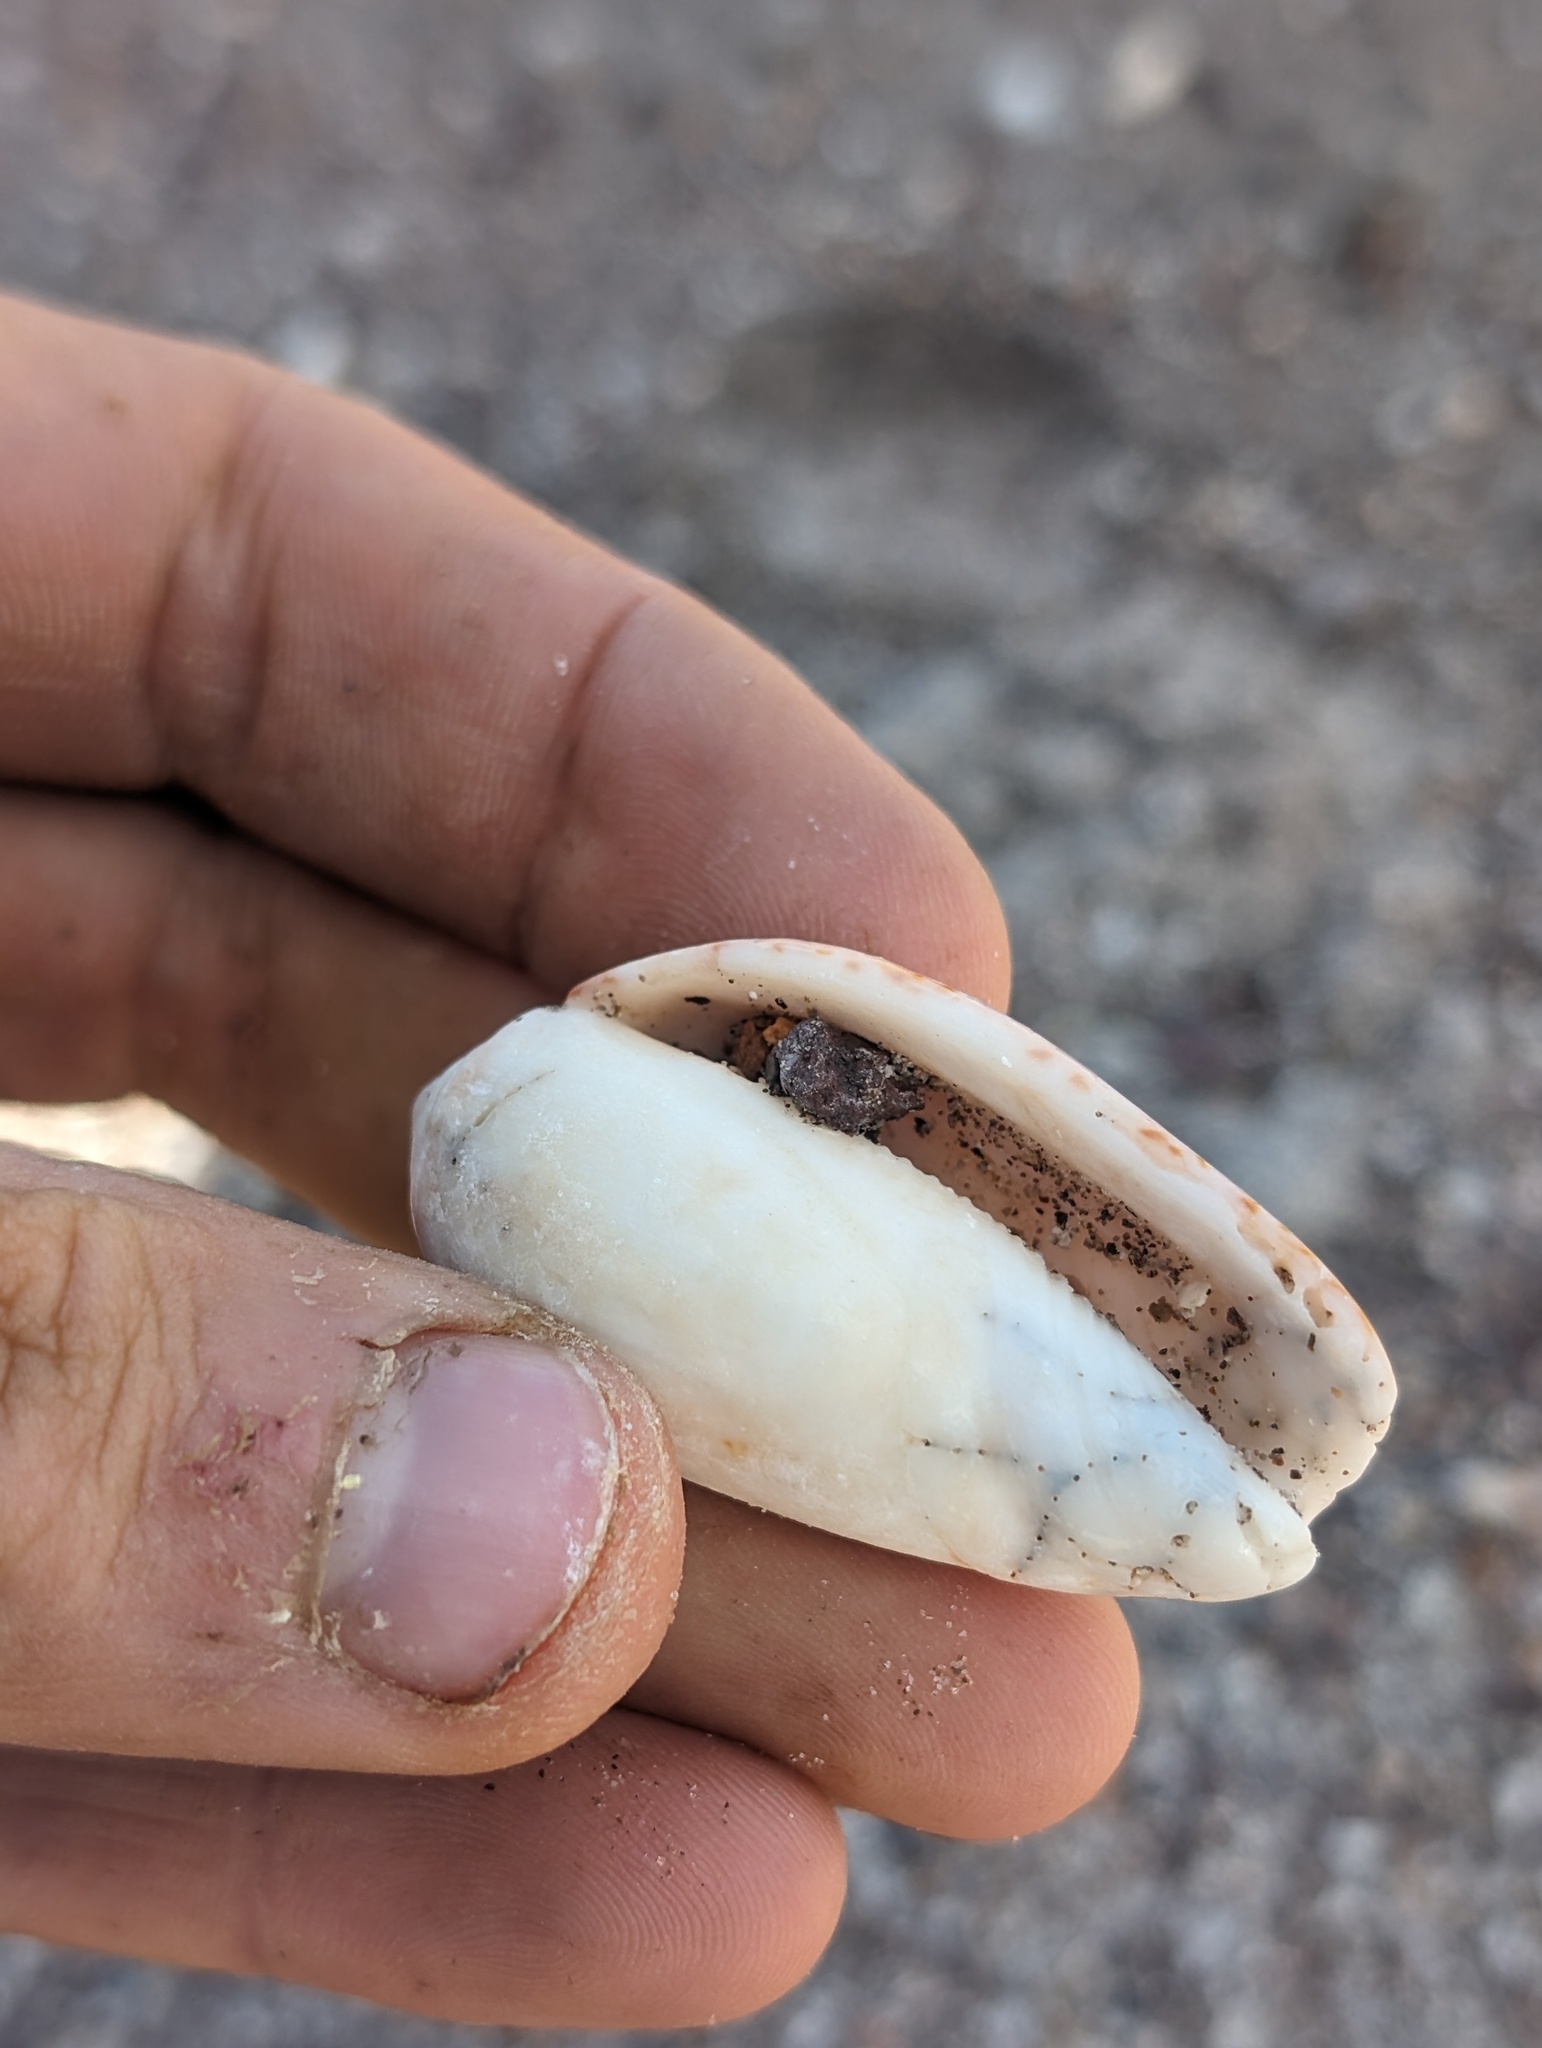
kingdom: Animalia
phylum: Mollusca
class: Gastropoda
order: Neogastropoda
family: Olividae
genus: Oliva
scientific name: Oliva incrassata
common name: Angled olive
